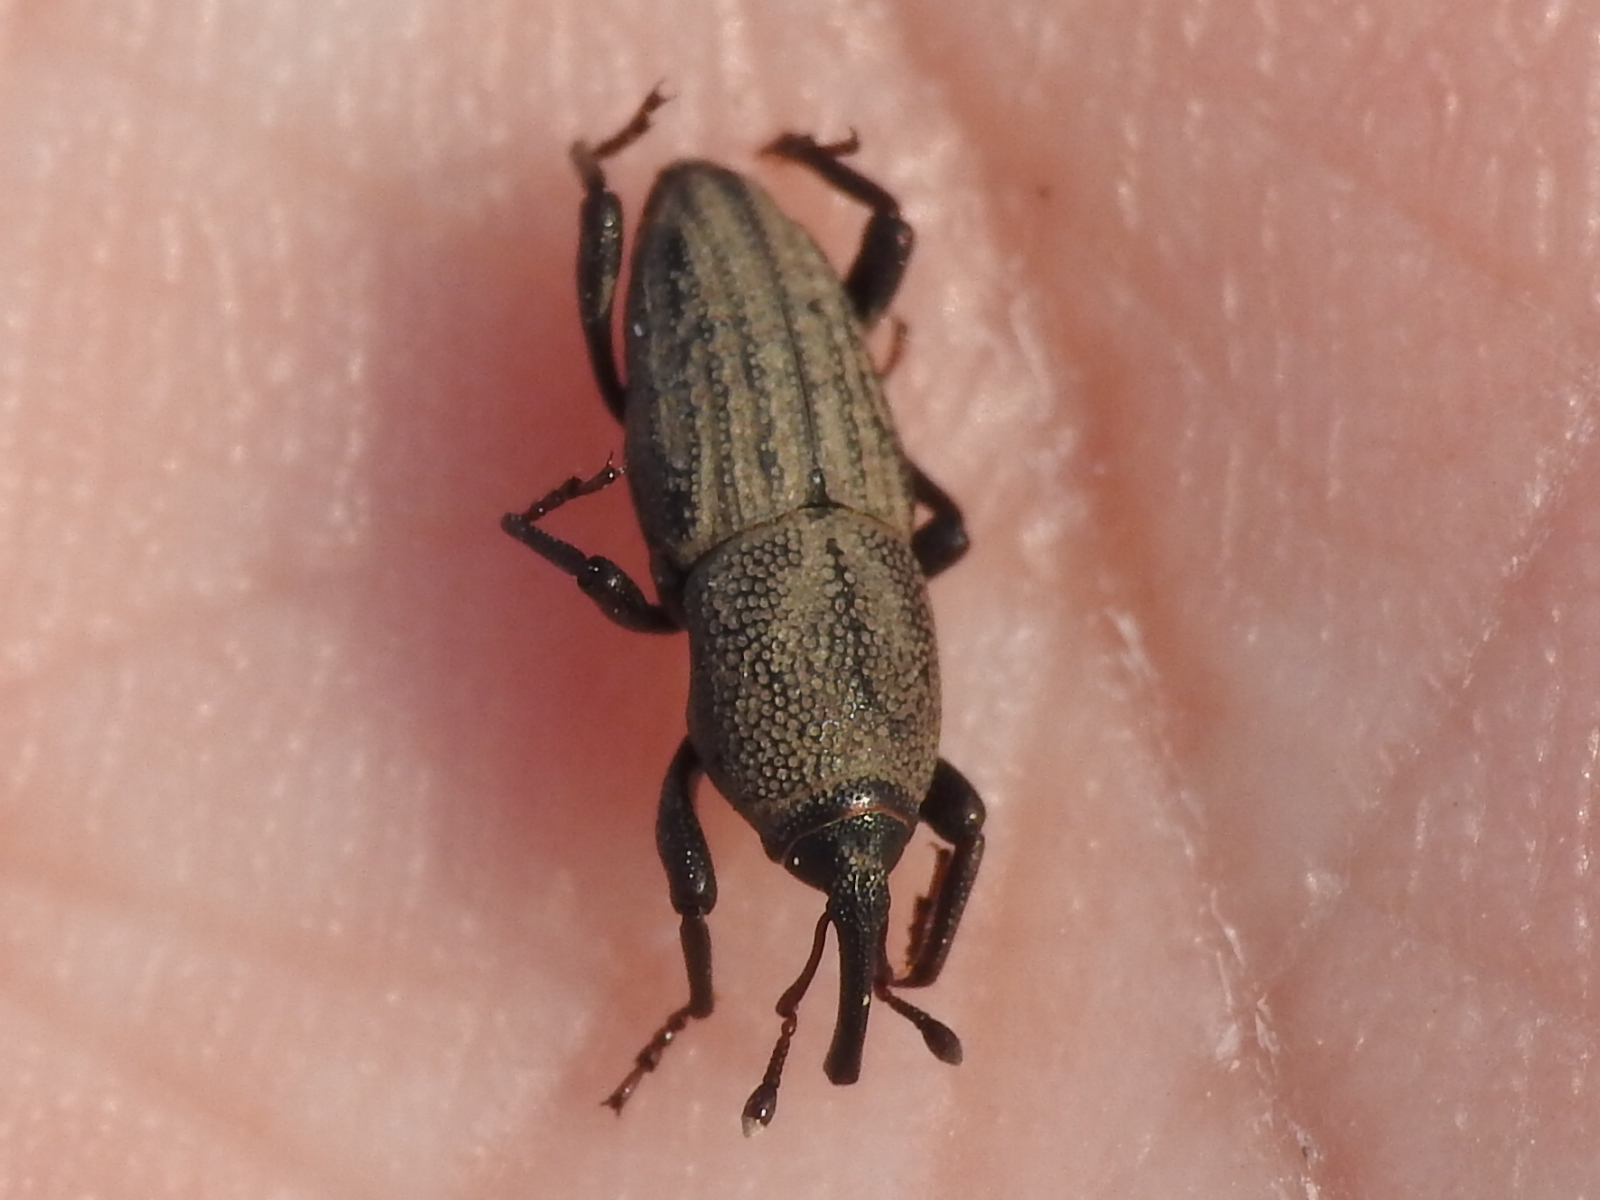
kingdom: Animalia
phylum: Arthropoda
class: Insecta
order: Coleoptera
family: Dryophthoridae
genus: Sphenophorus
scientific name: Sphenophorus interstitialis
